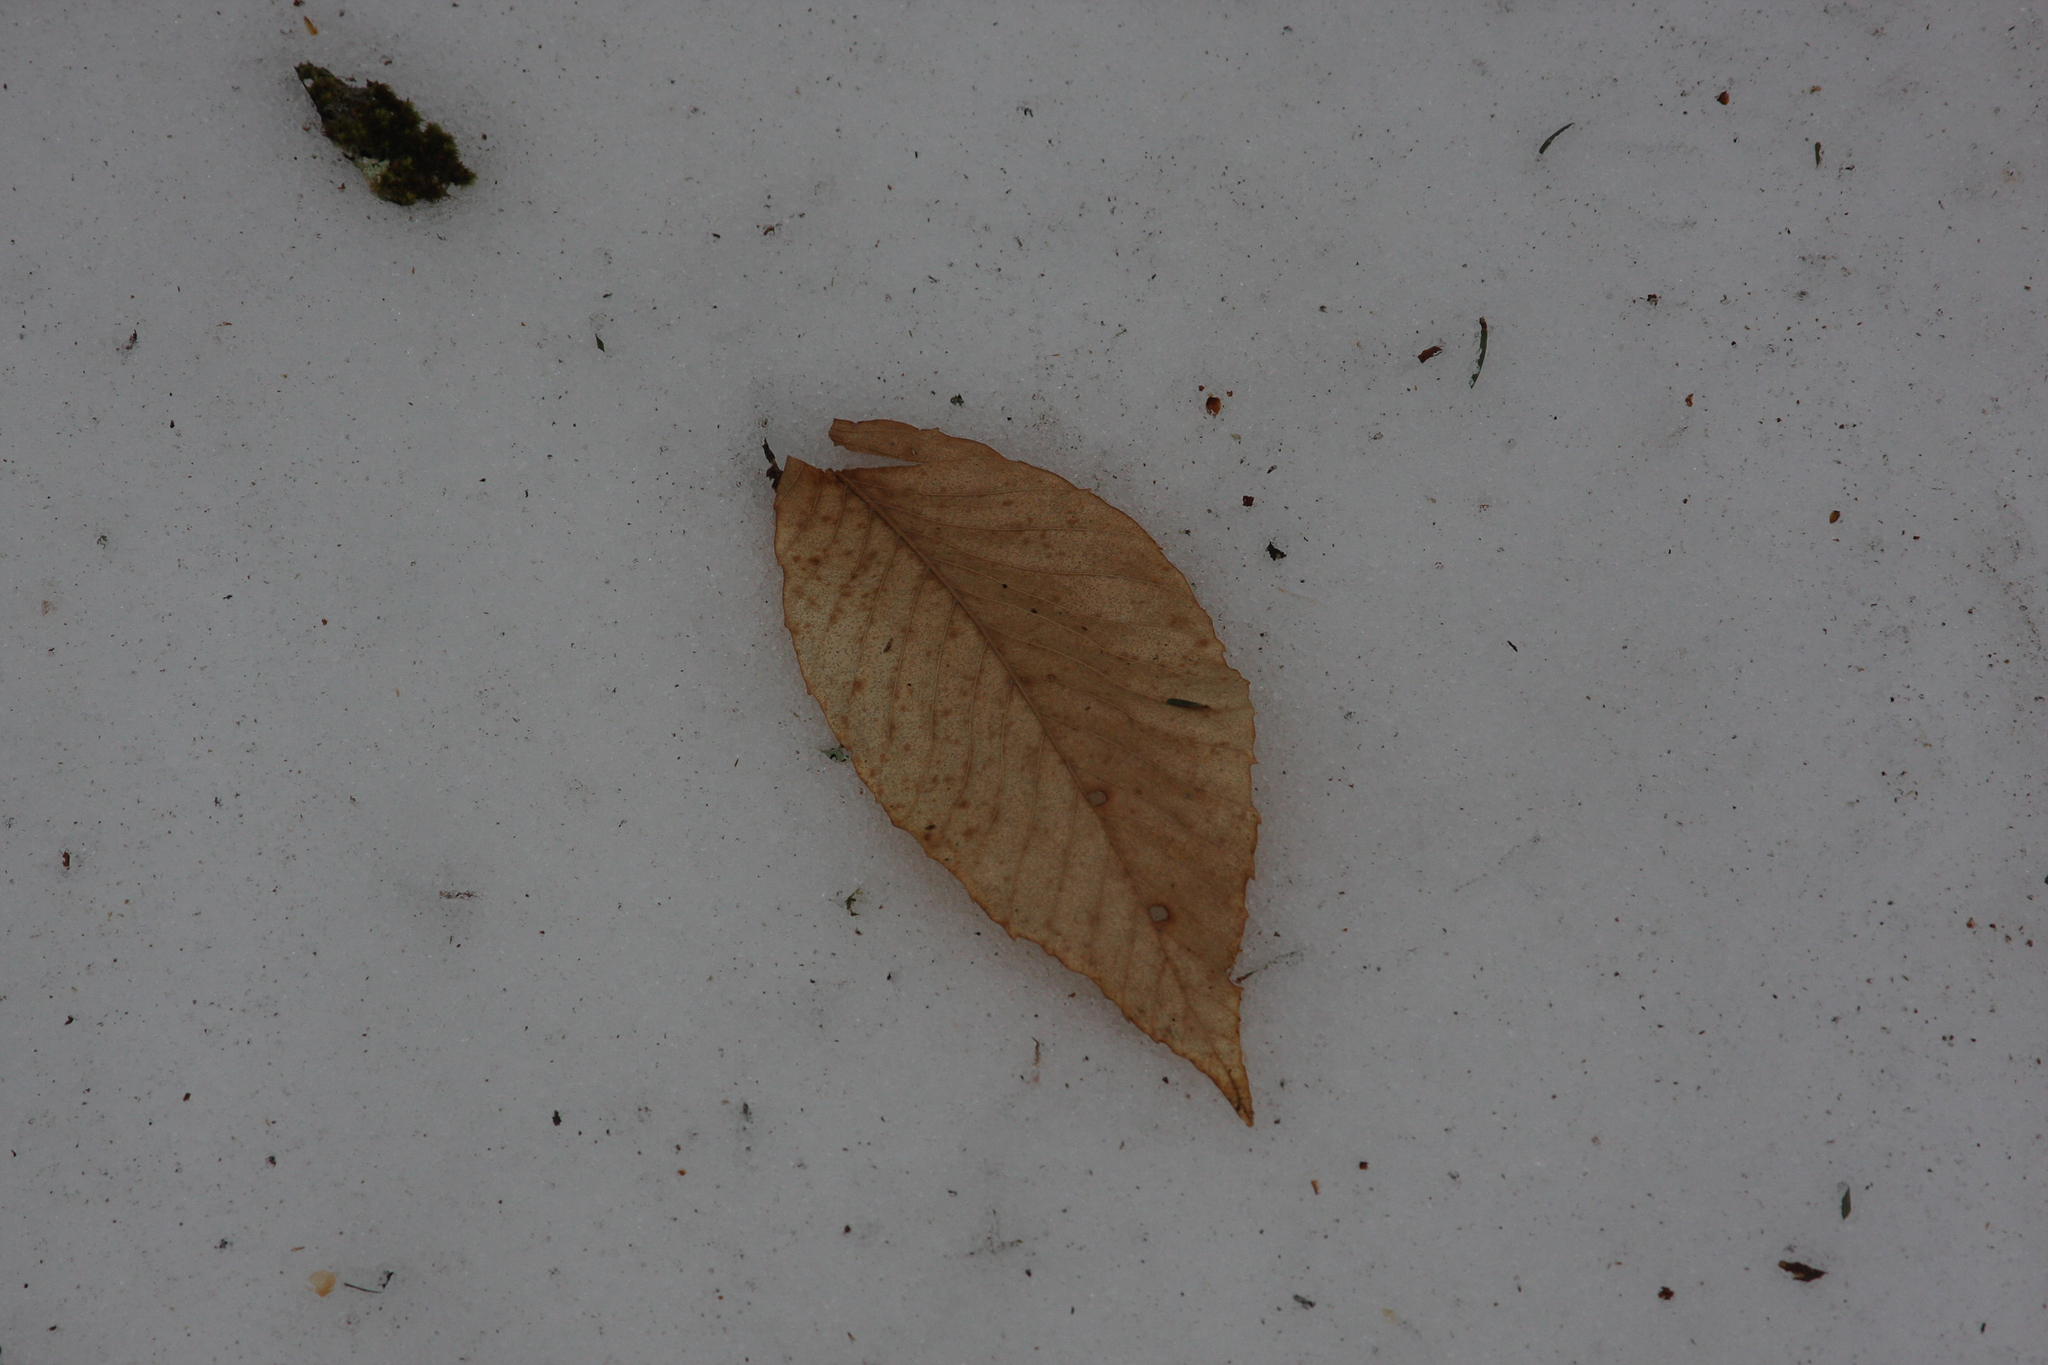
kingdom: Plantae
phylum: Tracheophyta
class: Magnoliopsida
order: Fagales
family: Fagaceae
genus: Fagus
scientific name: Fagus grandifolia
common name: American beech
